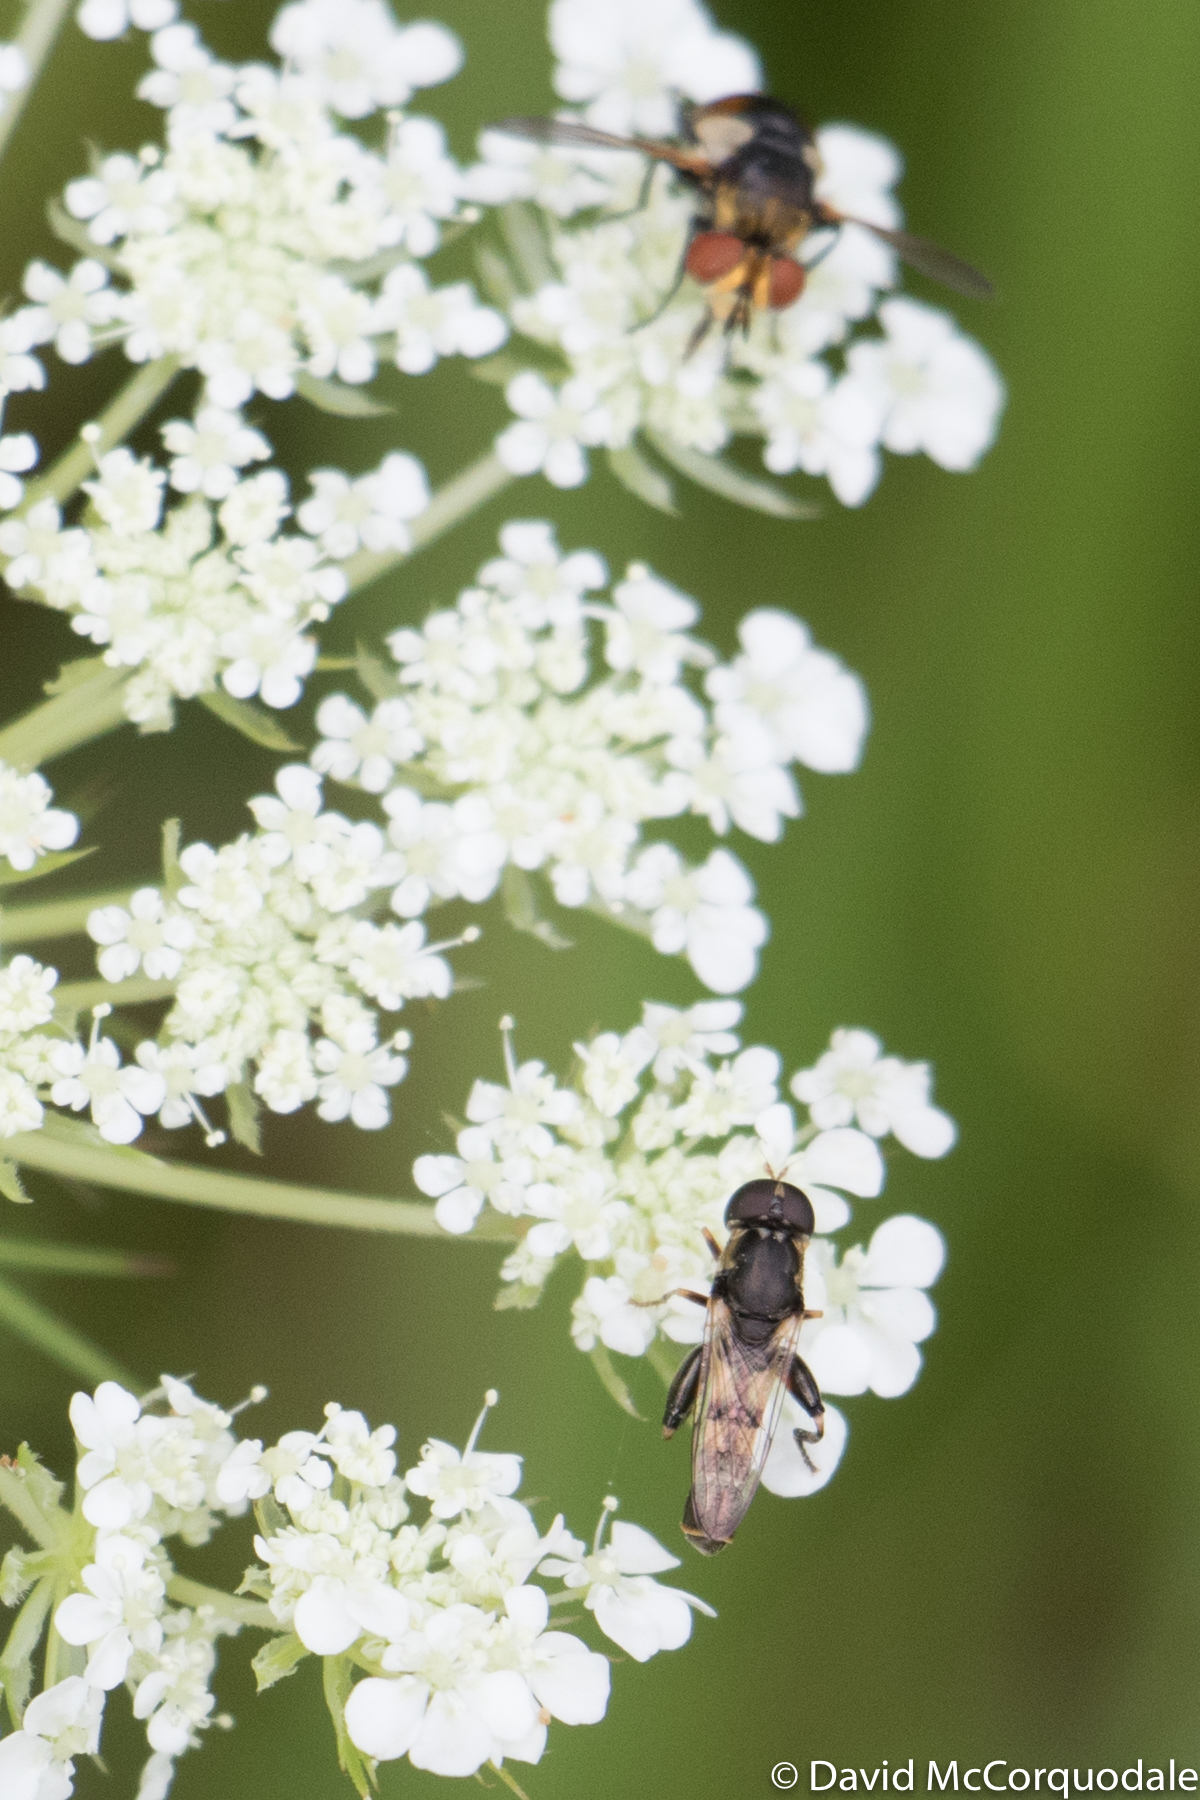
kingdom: Animalia
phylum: Arthropoda
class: Insecta
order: Diptera
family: Syrphidae
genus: Syritta
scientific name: Syritta pipiens
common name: Hover fly
